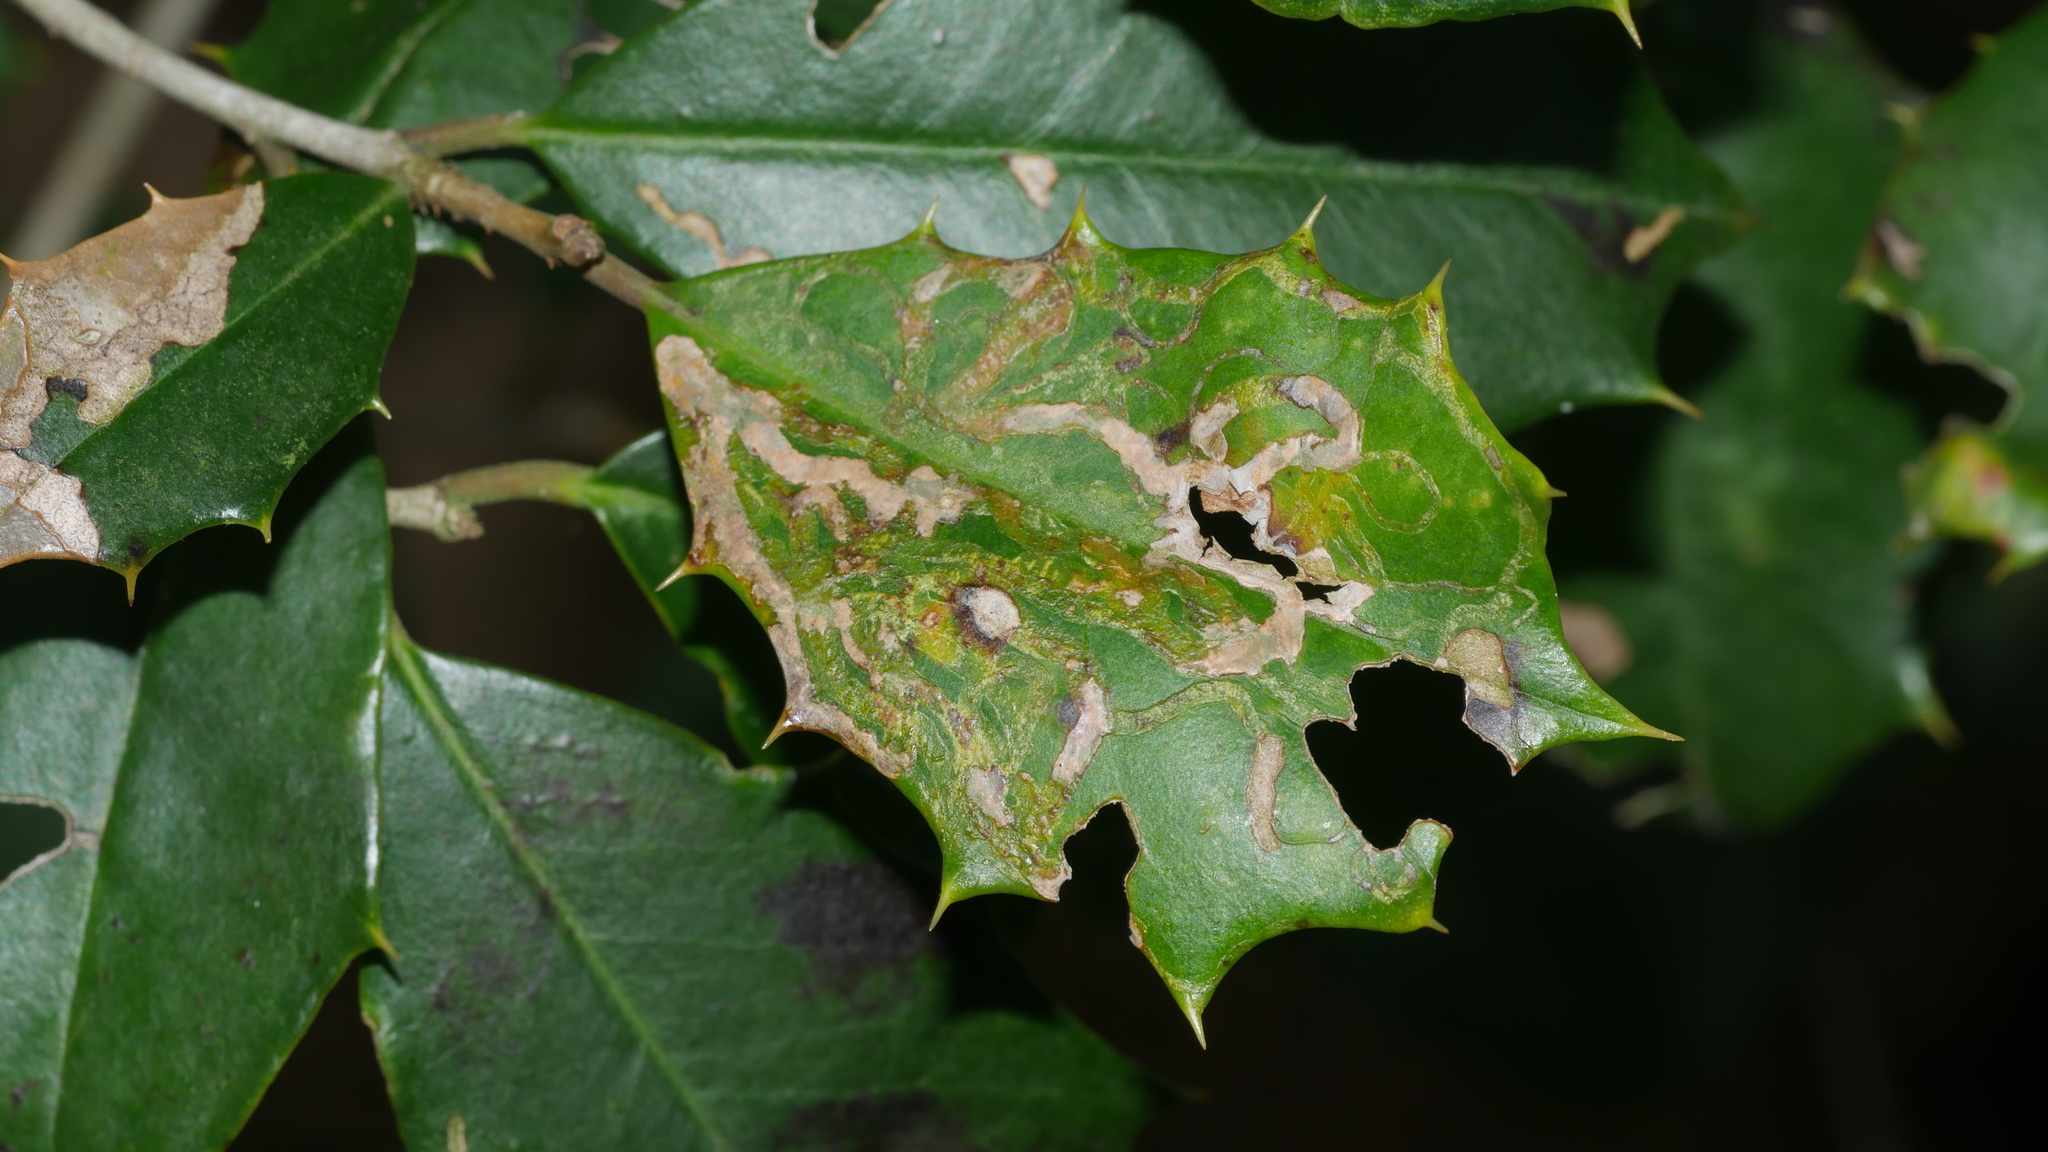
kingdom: Animalia
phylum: Arthropoda
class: Insecta
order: Diptera
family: Agromyzidae
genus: Phytomyza
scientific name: Phytomyza opacae
